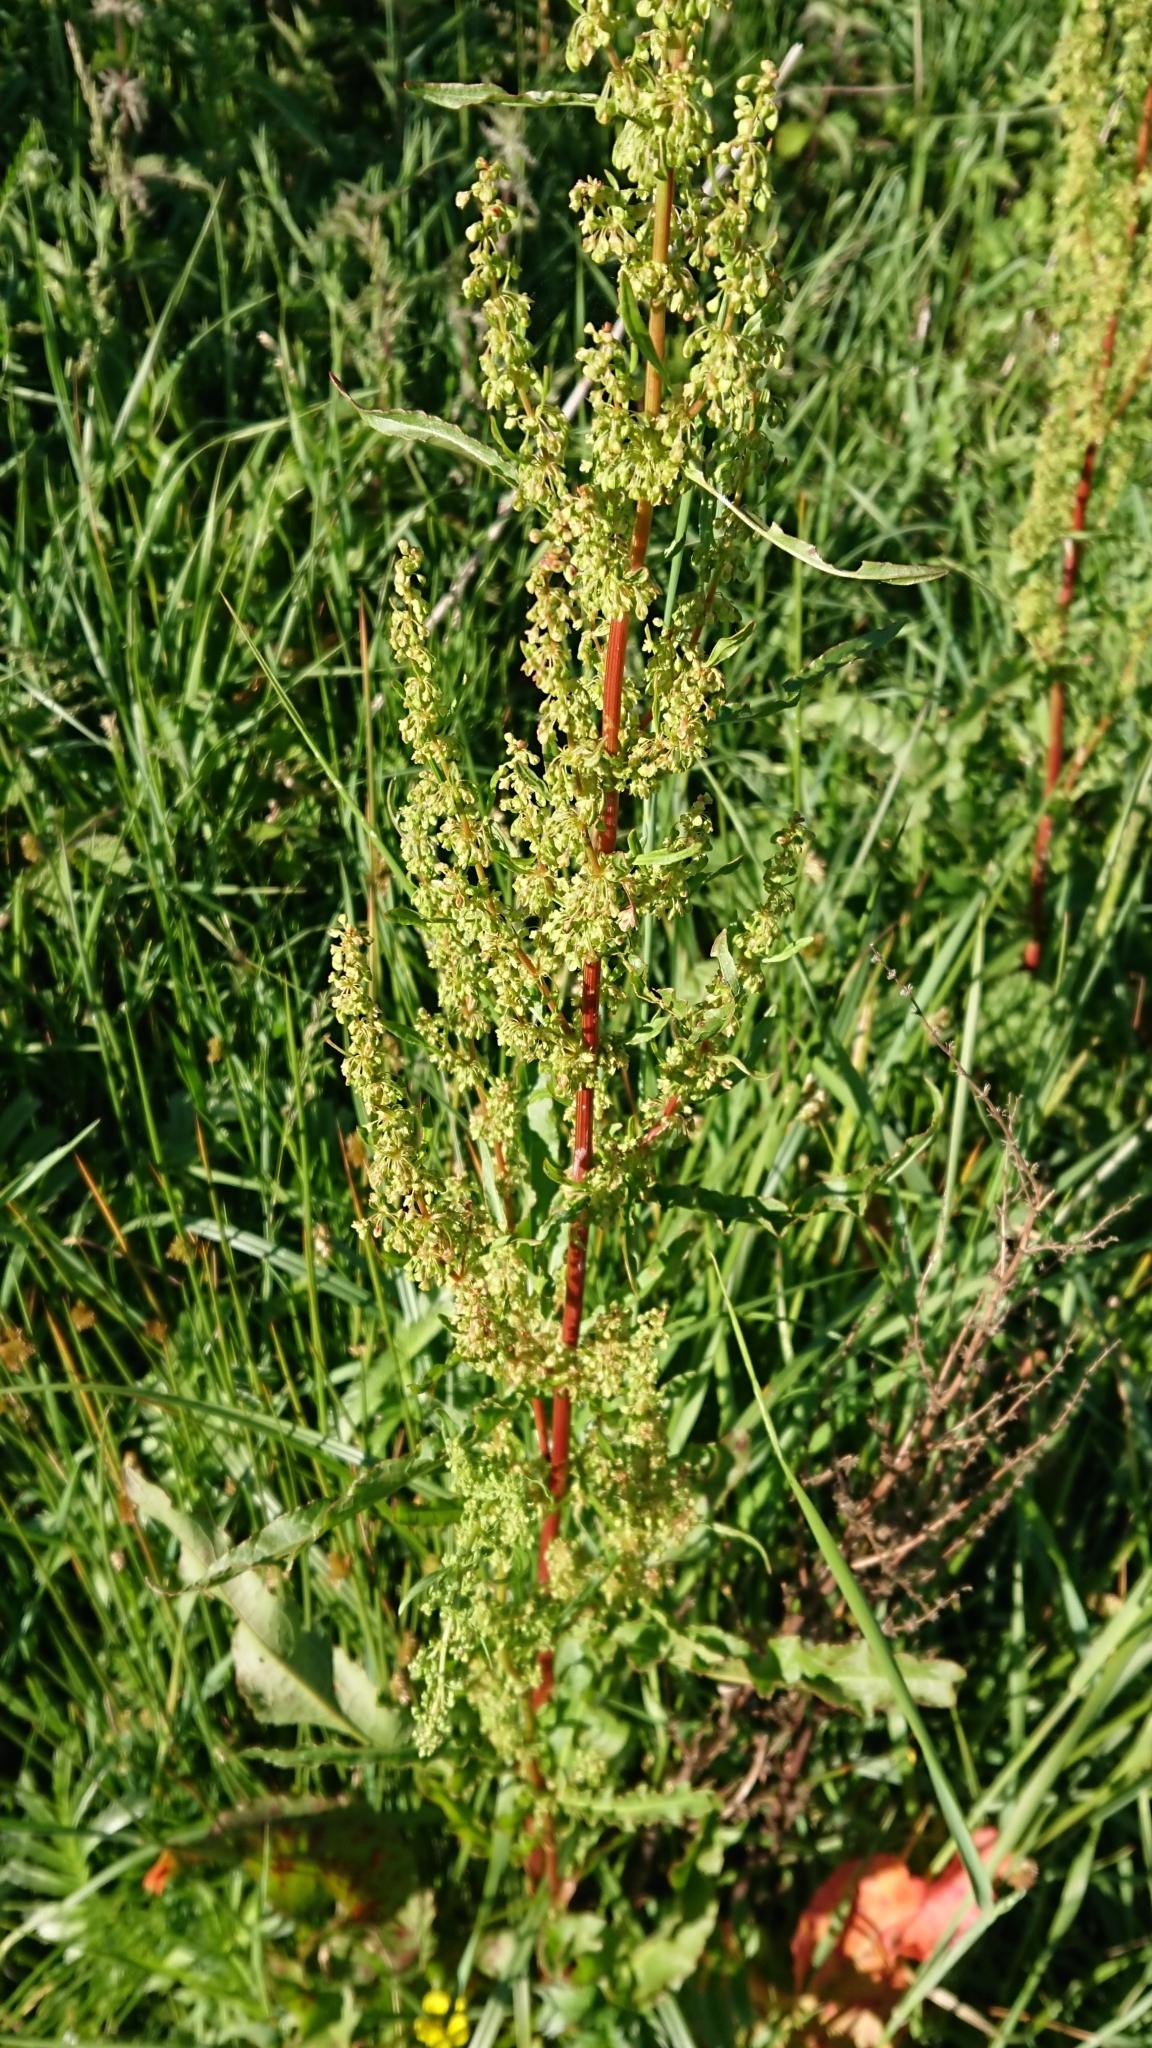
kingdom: Plantae
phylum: Tracheophyta
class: Magnoliopsida
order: Caryophyllales
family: Polygonaceae
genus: Rumex
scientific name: Rumex crispus
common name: Curled dock
